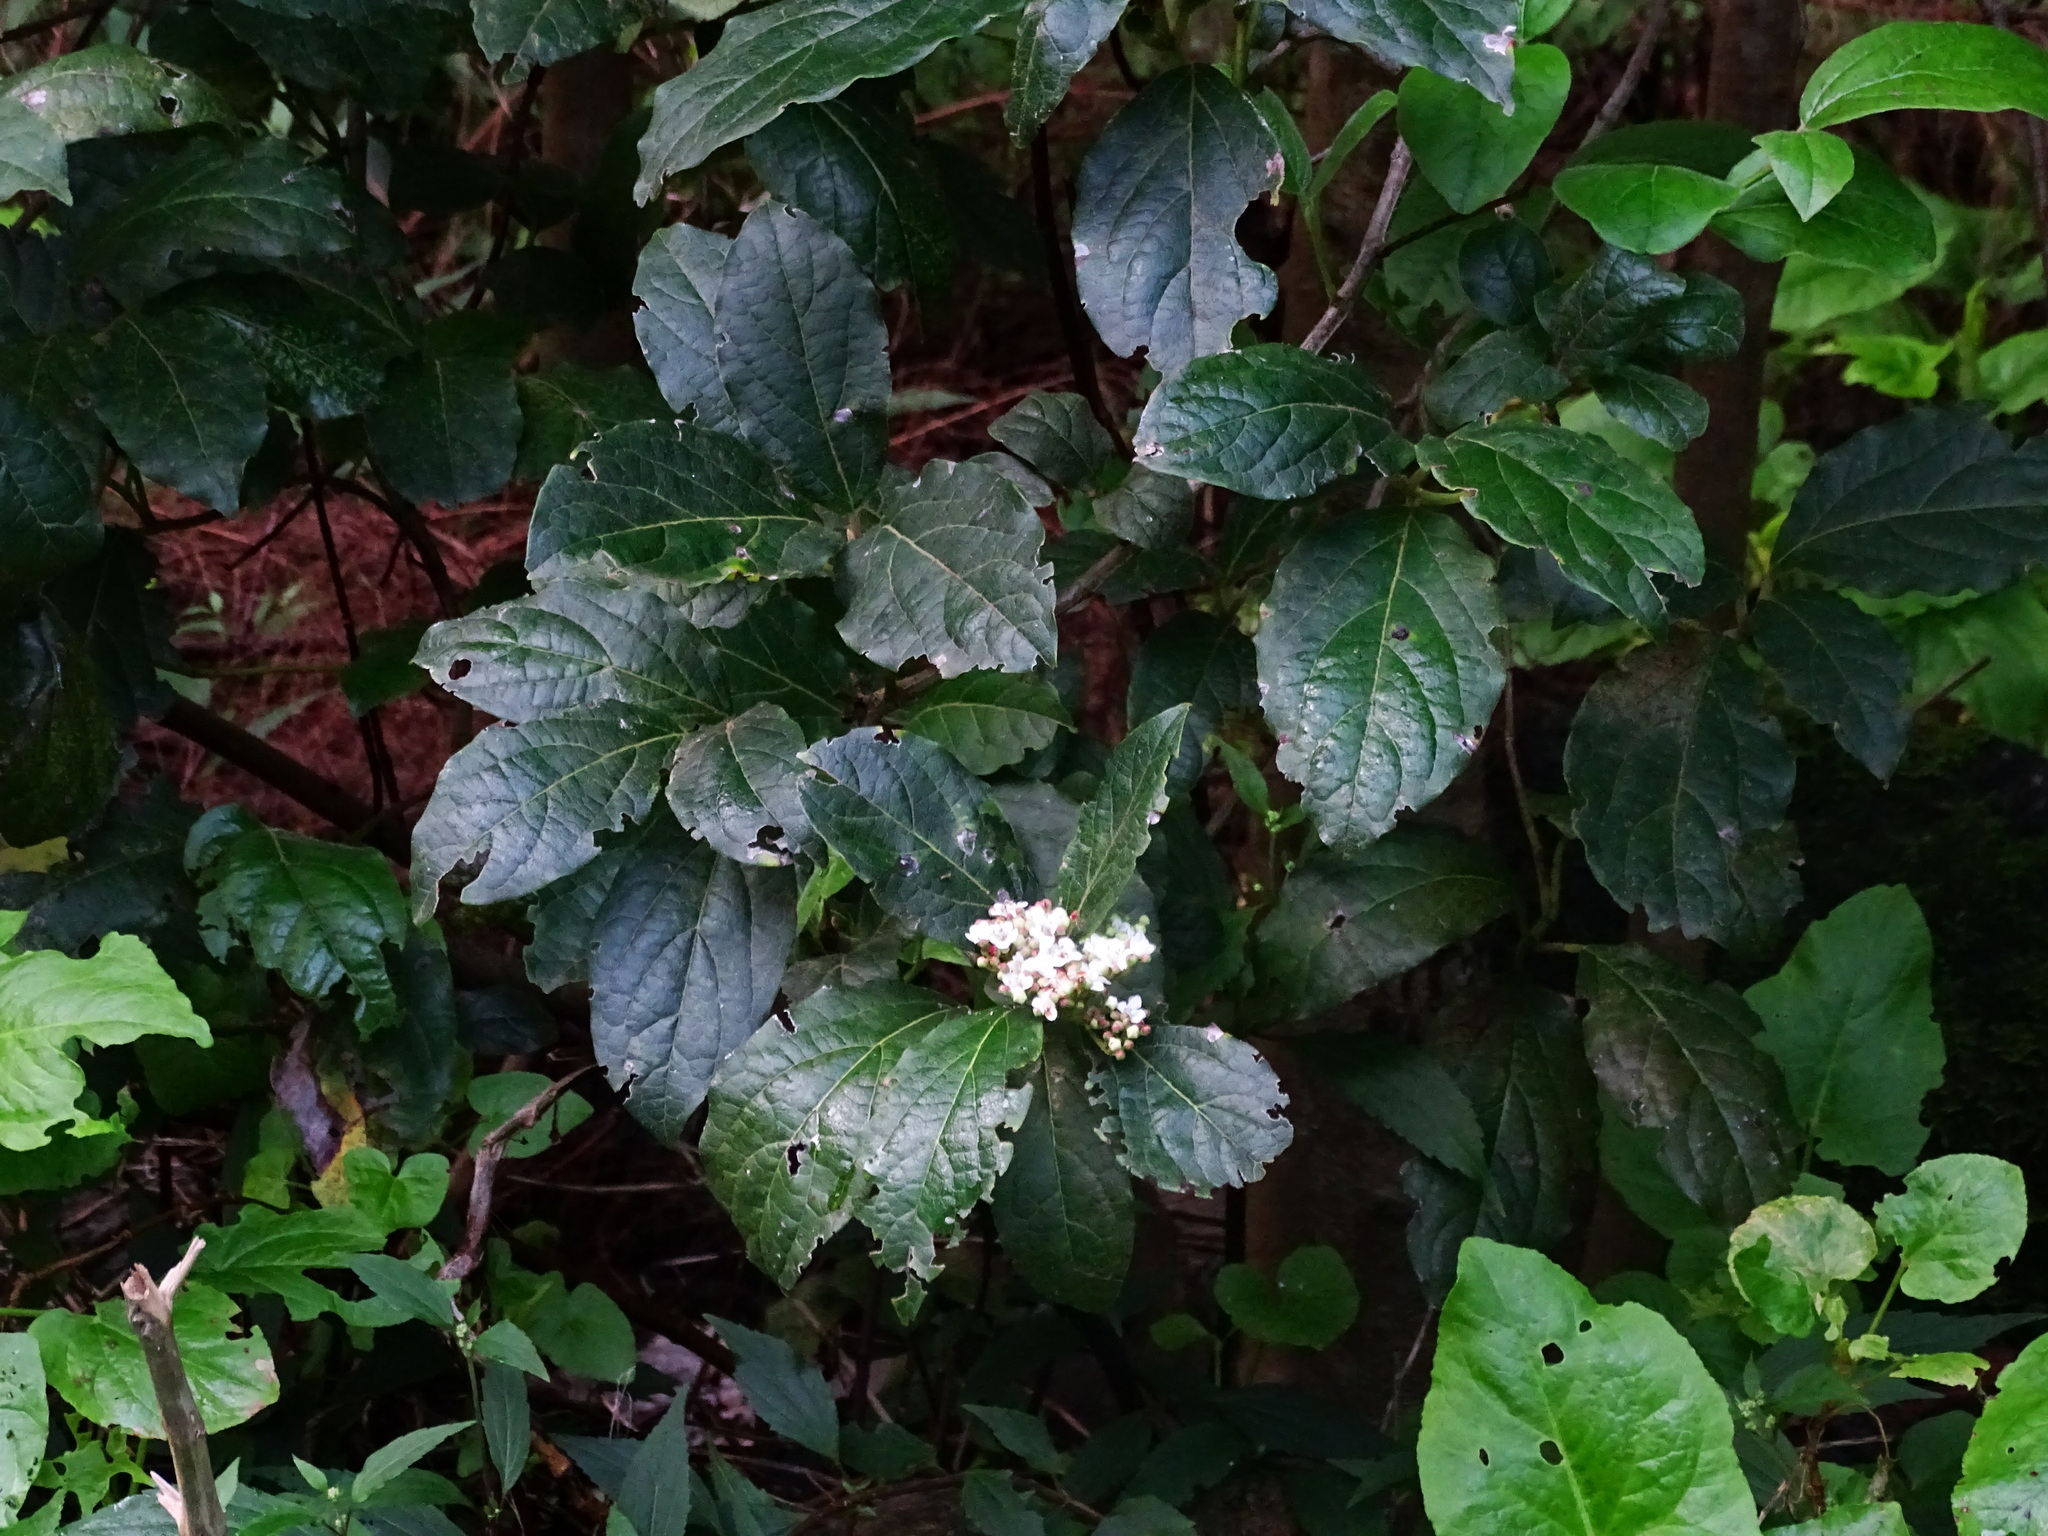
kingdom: Plantae
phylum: Tracheophyta
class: Magnoliopsida
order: Dipsacales
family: Viburnaceae
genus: Viburnum
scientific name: Viburnum rugosum
